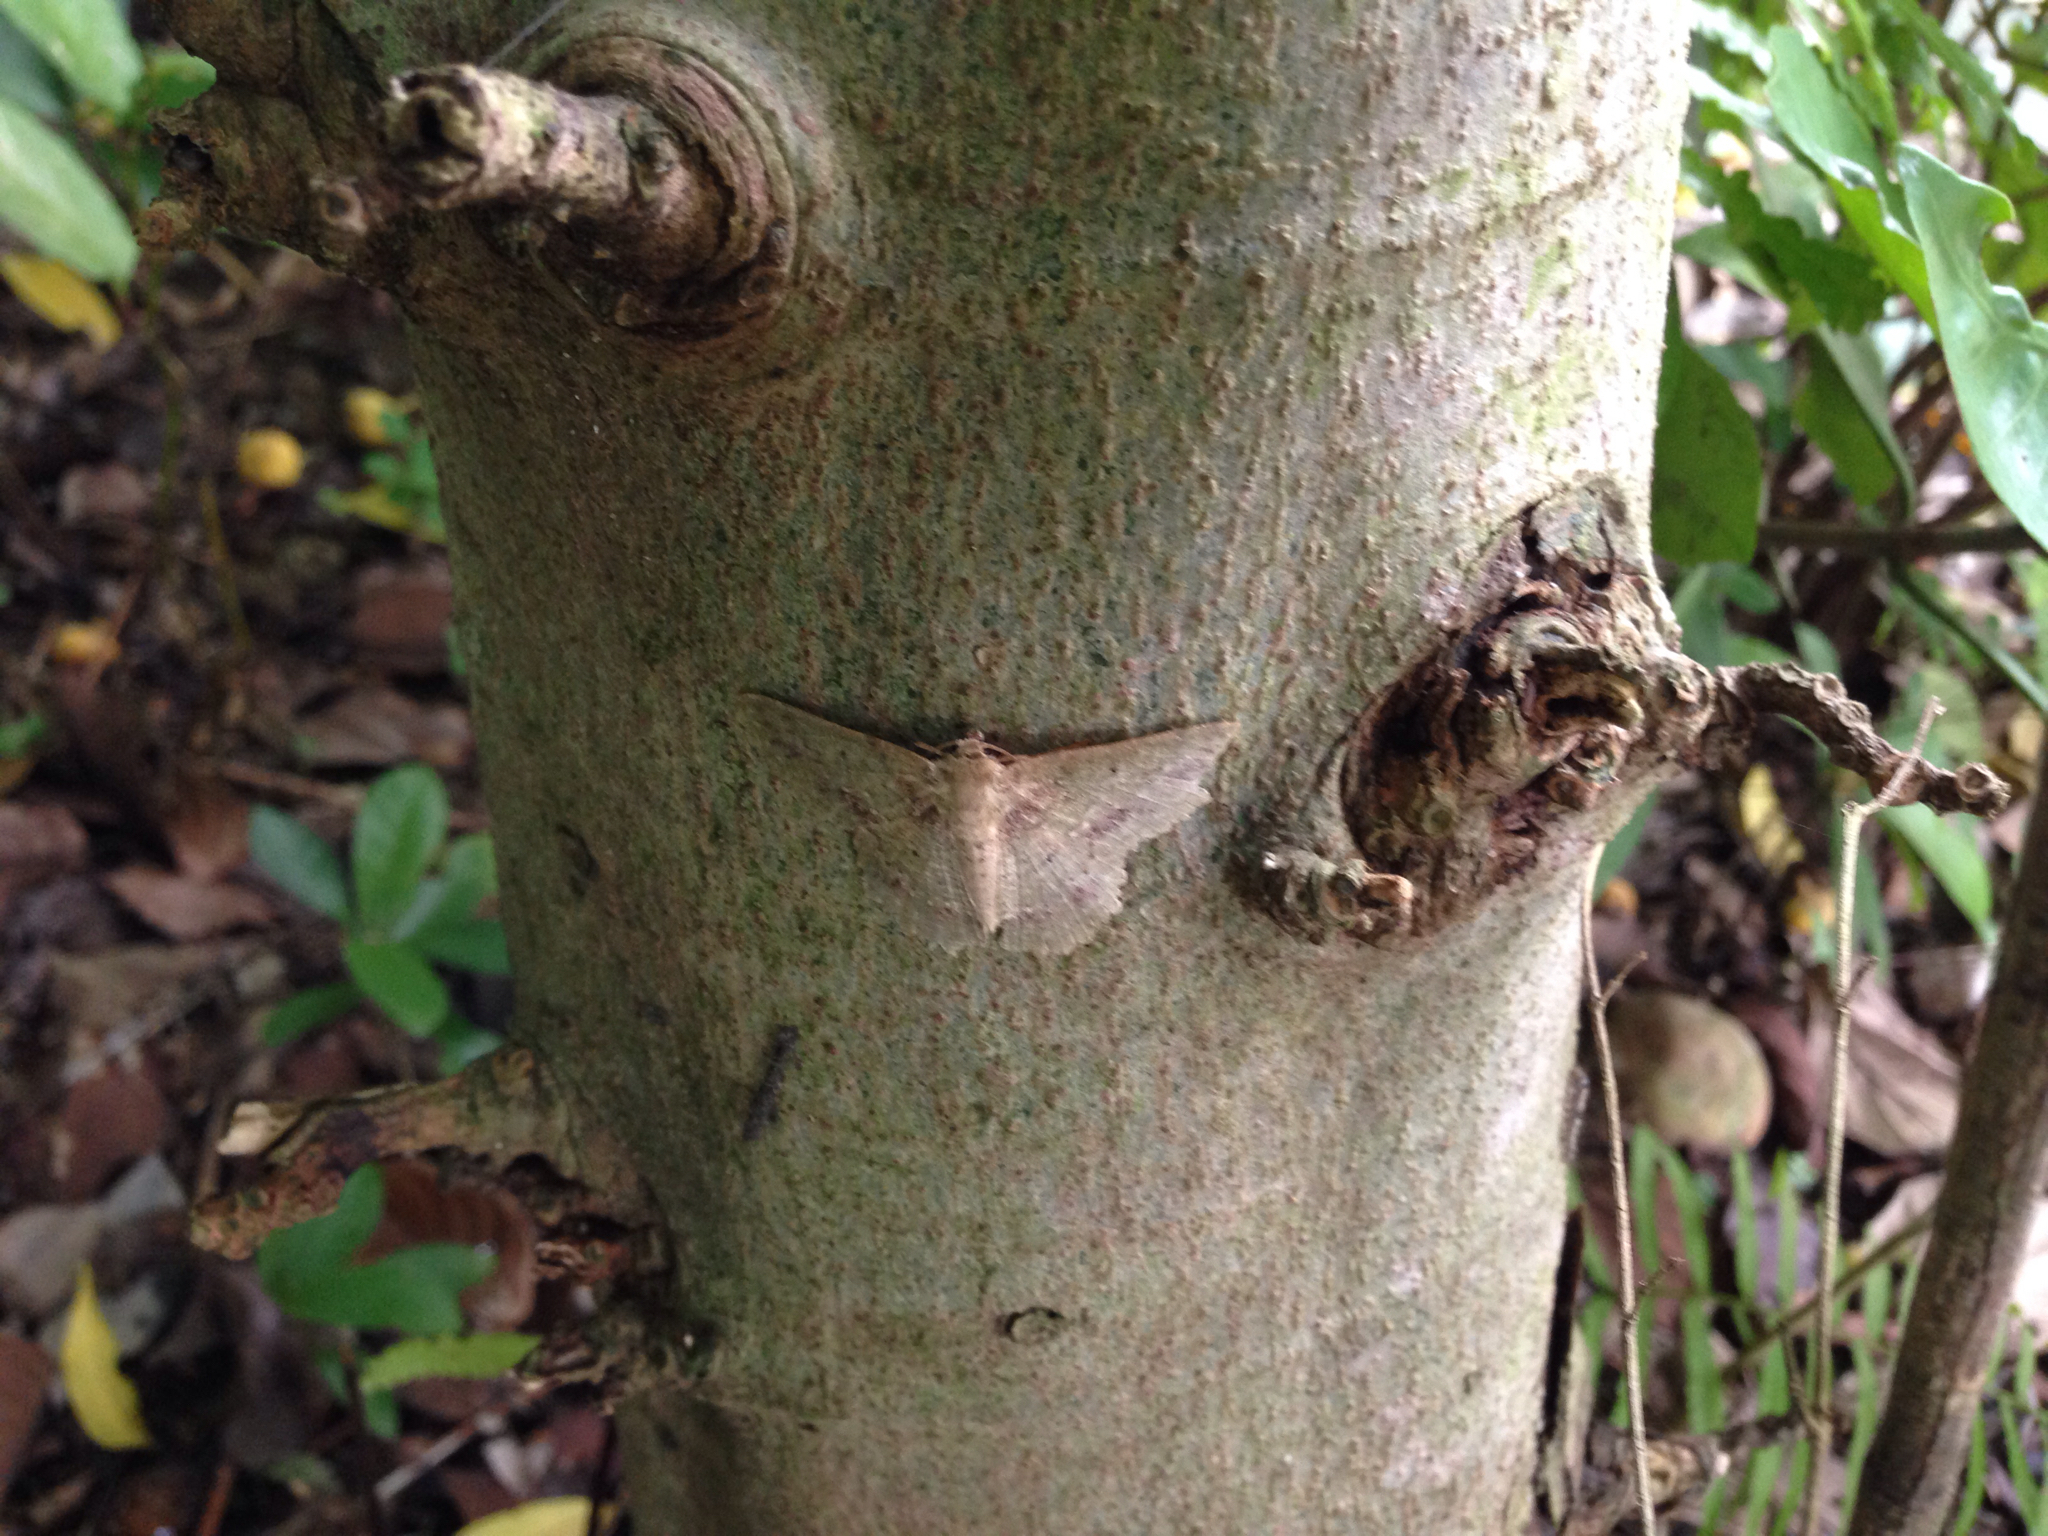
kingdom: Animalia
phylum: Arthropoda
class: Insecta
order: Lepidoptera
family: Geometridae
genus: Herochroma
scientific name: Herochroma cristata
